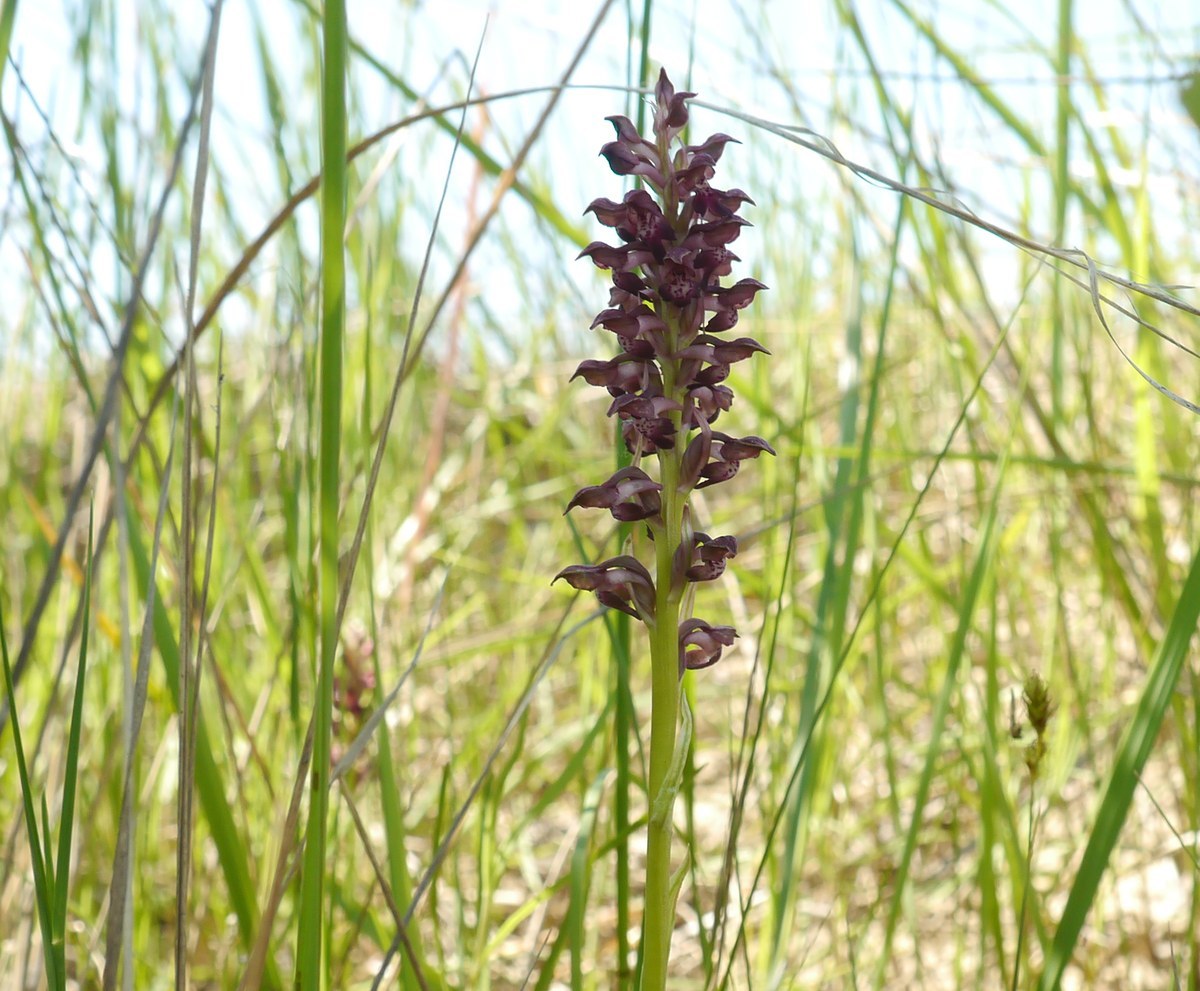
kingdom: Plantae
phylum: Tracheophyta
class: Liliopsida
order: Asparagales
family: Orchidaceae
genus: Anacamptis
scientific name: Anacamptis coriophora
